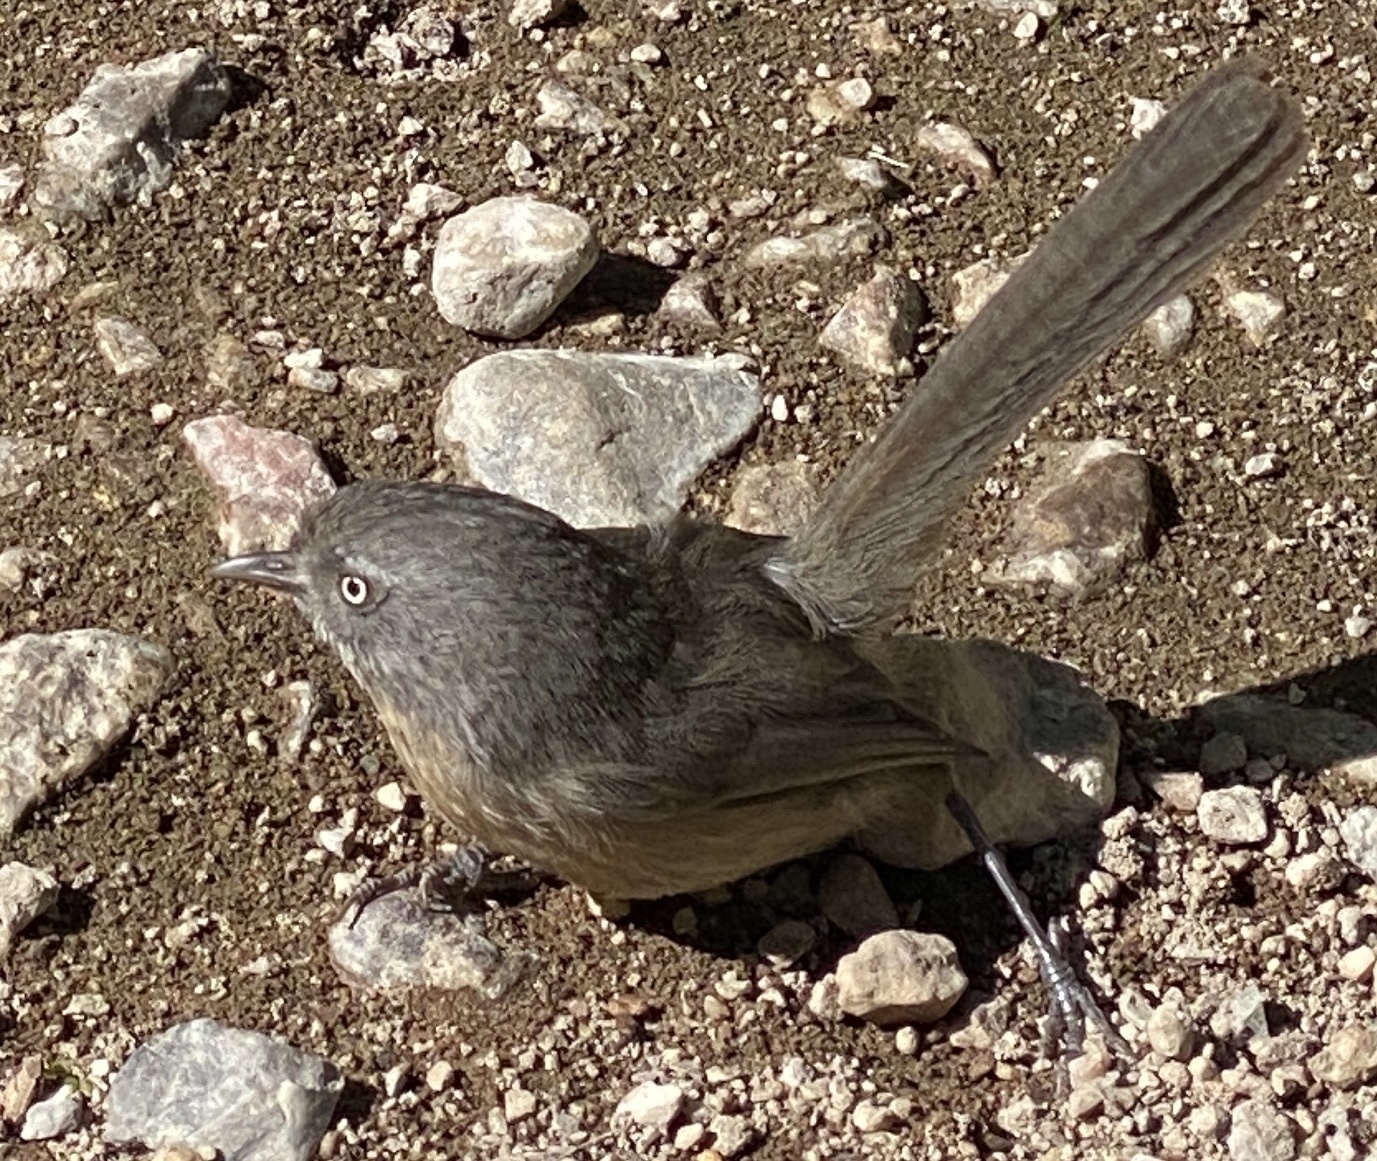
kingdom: Animalia
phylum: Chordata
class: Aves
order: Passeriformes
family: Sylviidae
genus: Chamaea
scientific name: Chamaea fasciata
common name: Wrentit
